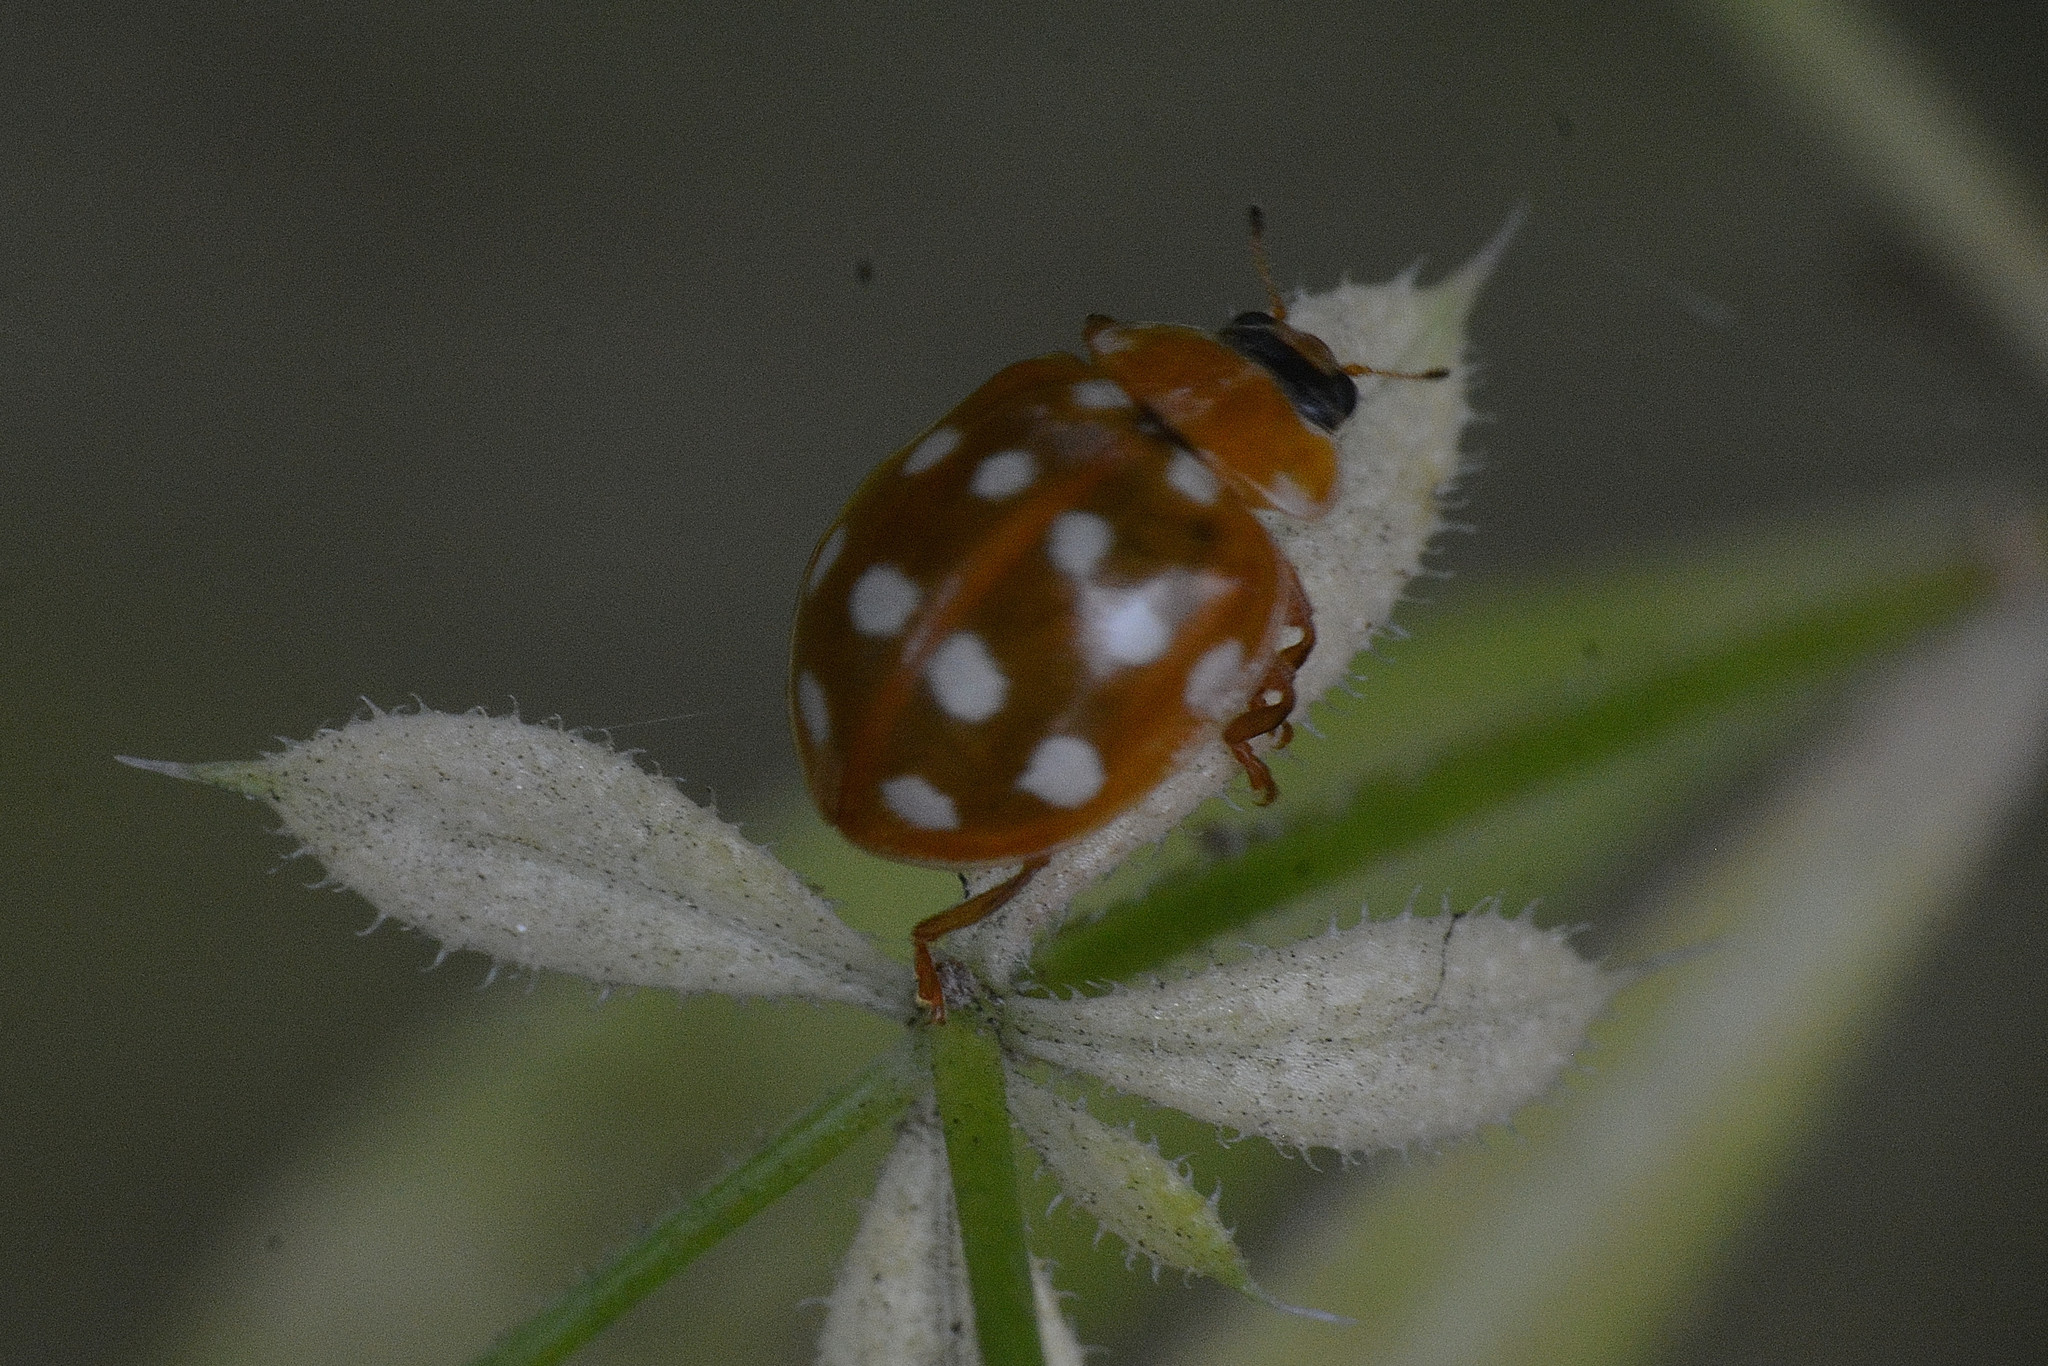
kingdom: Animalia
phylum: Arthropoda
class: Insecta
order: Coleoptera
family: Coccinellidae
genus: Calvia
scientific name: Calvia quatuordecimguttata
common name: Cream-spot ladybird
